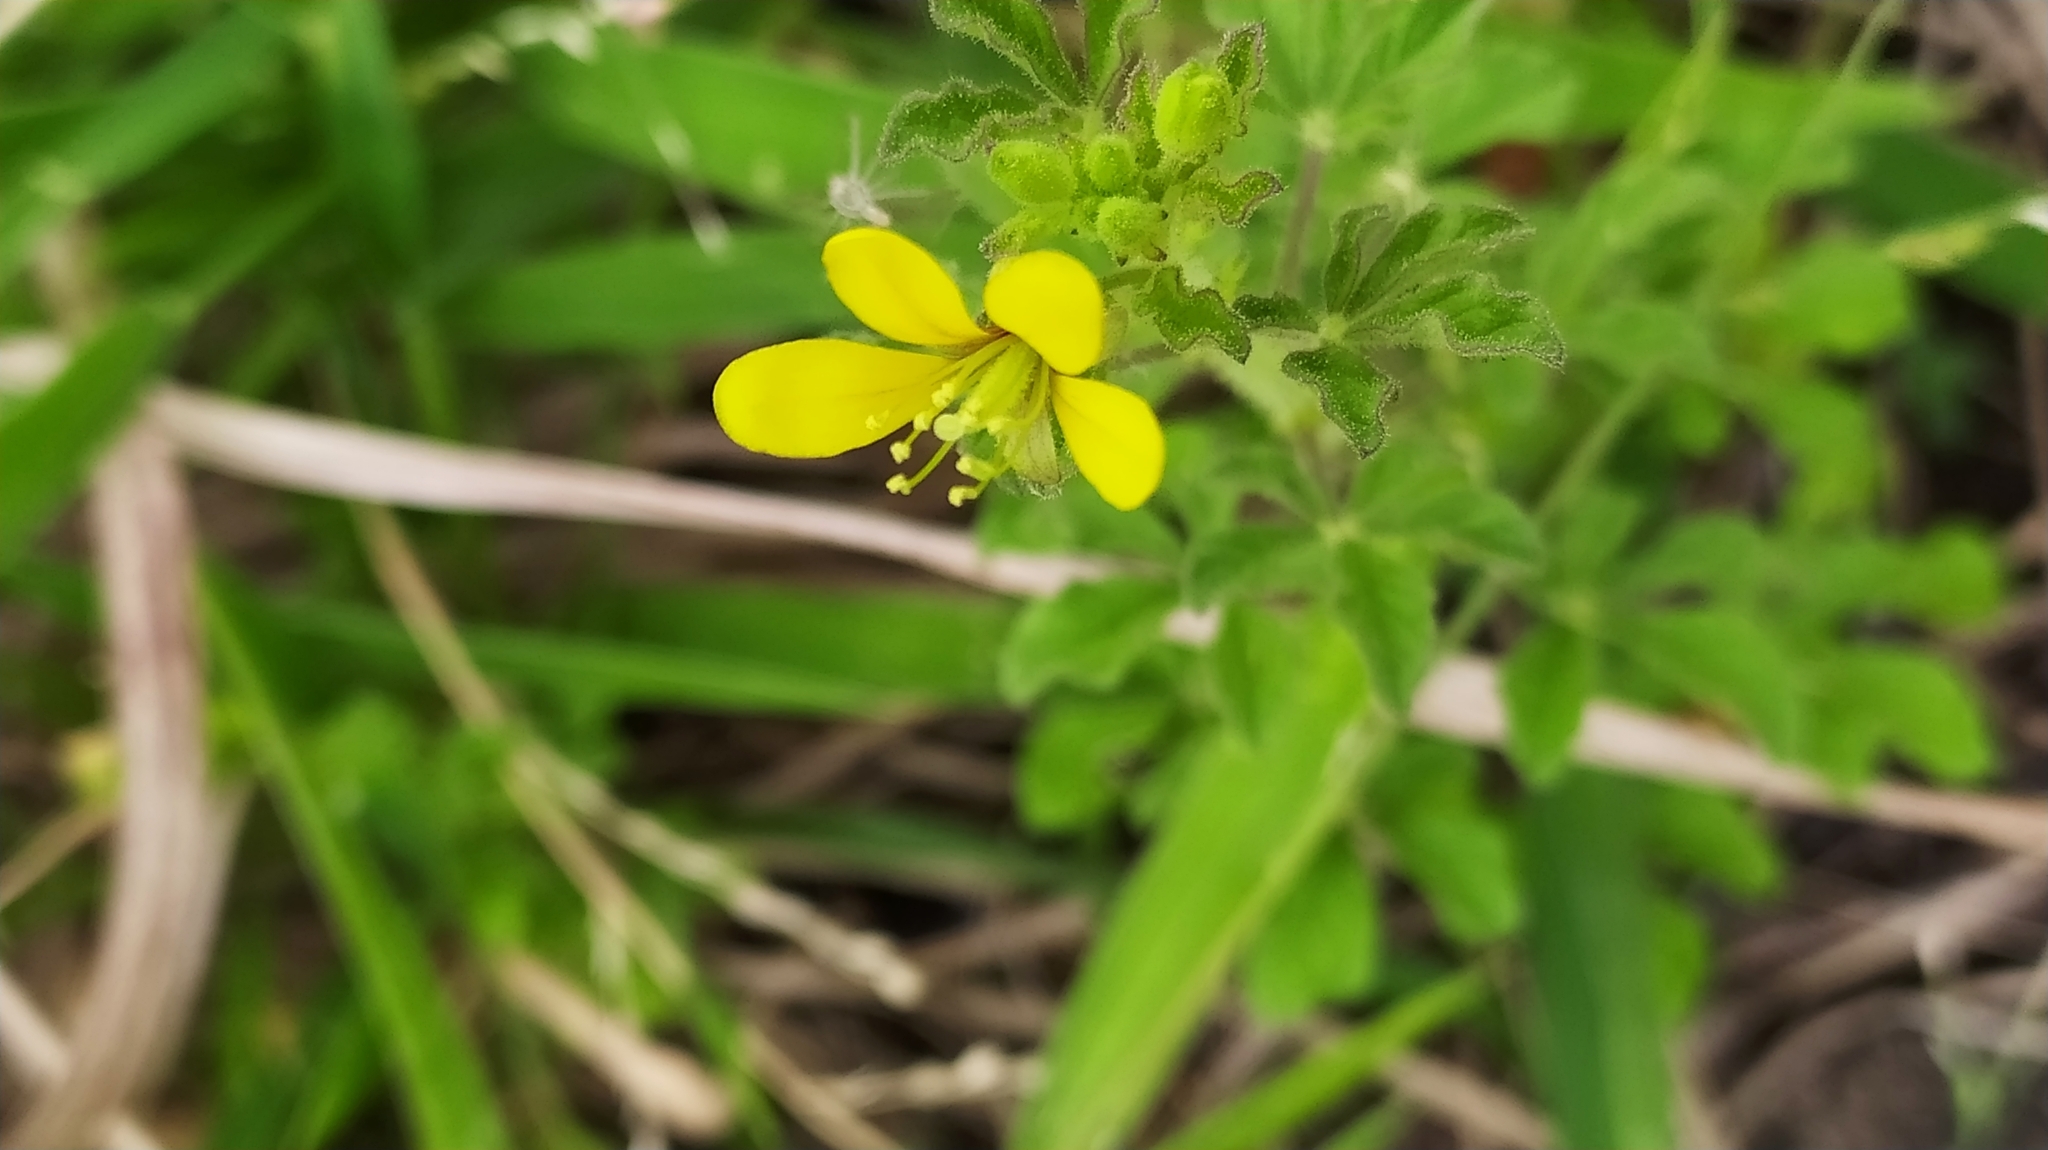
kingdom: Plantae
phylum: Tracheophyta
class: Magnoliopsida
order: Brassicales
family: Cleomaceae
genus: Arivela
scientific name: Arivela viscosa
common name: Asian spiderflower
